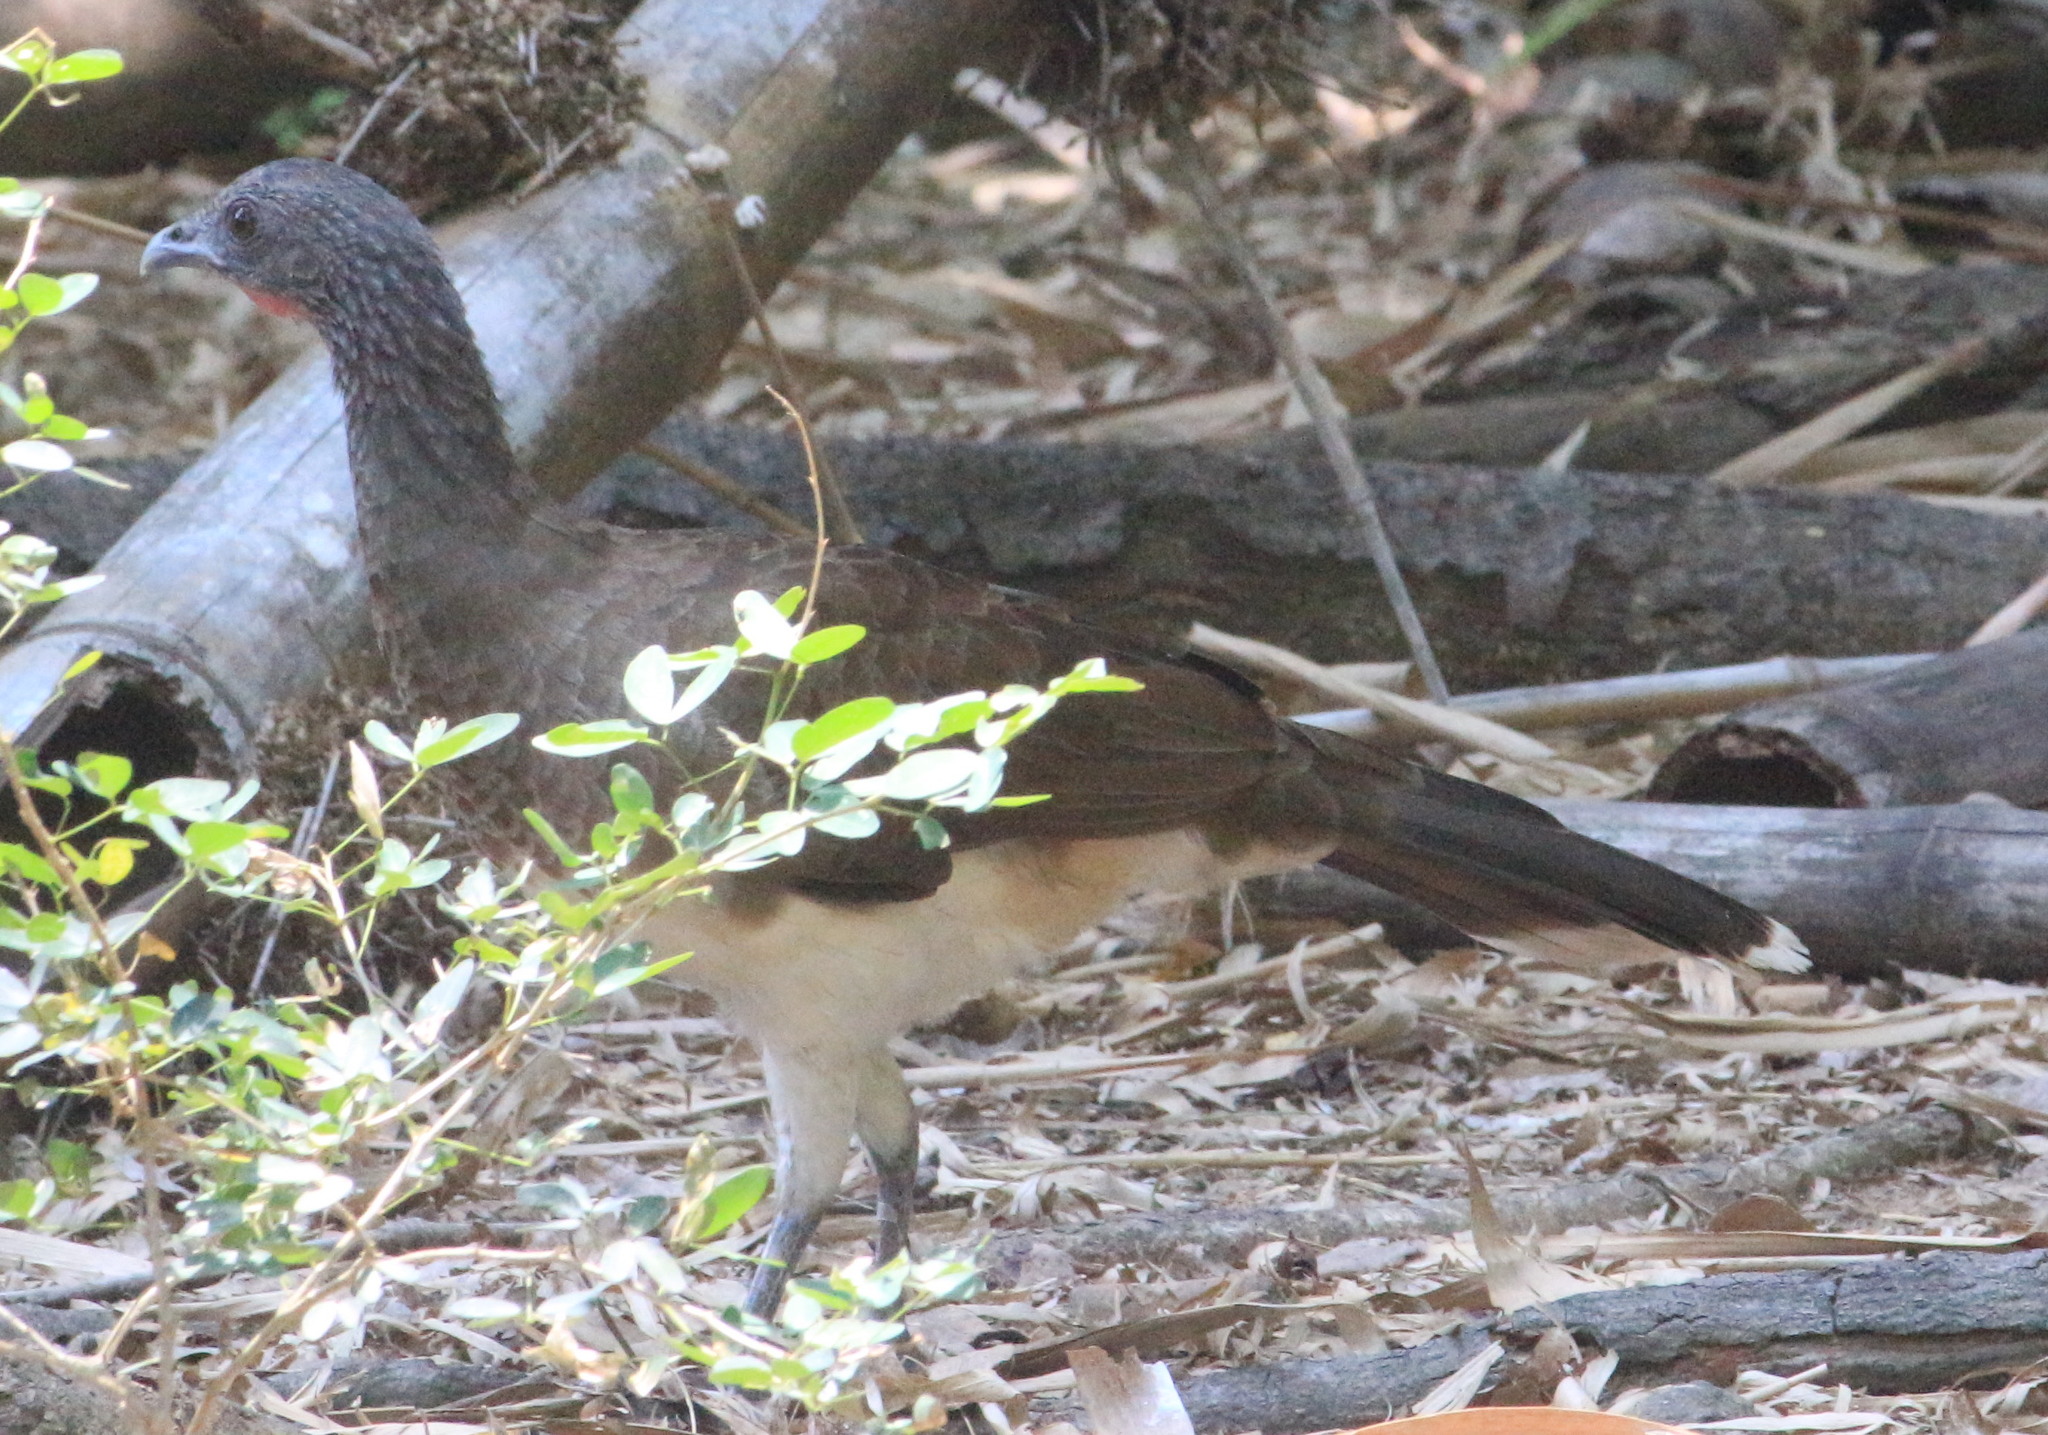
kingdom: Animalia
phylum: Chordata
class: Aves
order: Galliformes
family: Cracidae
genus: Ortalis
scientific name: Ortalis leucogastra
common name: White-bellied chachalaca
